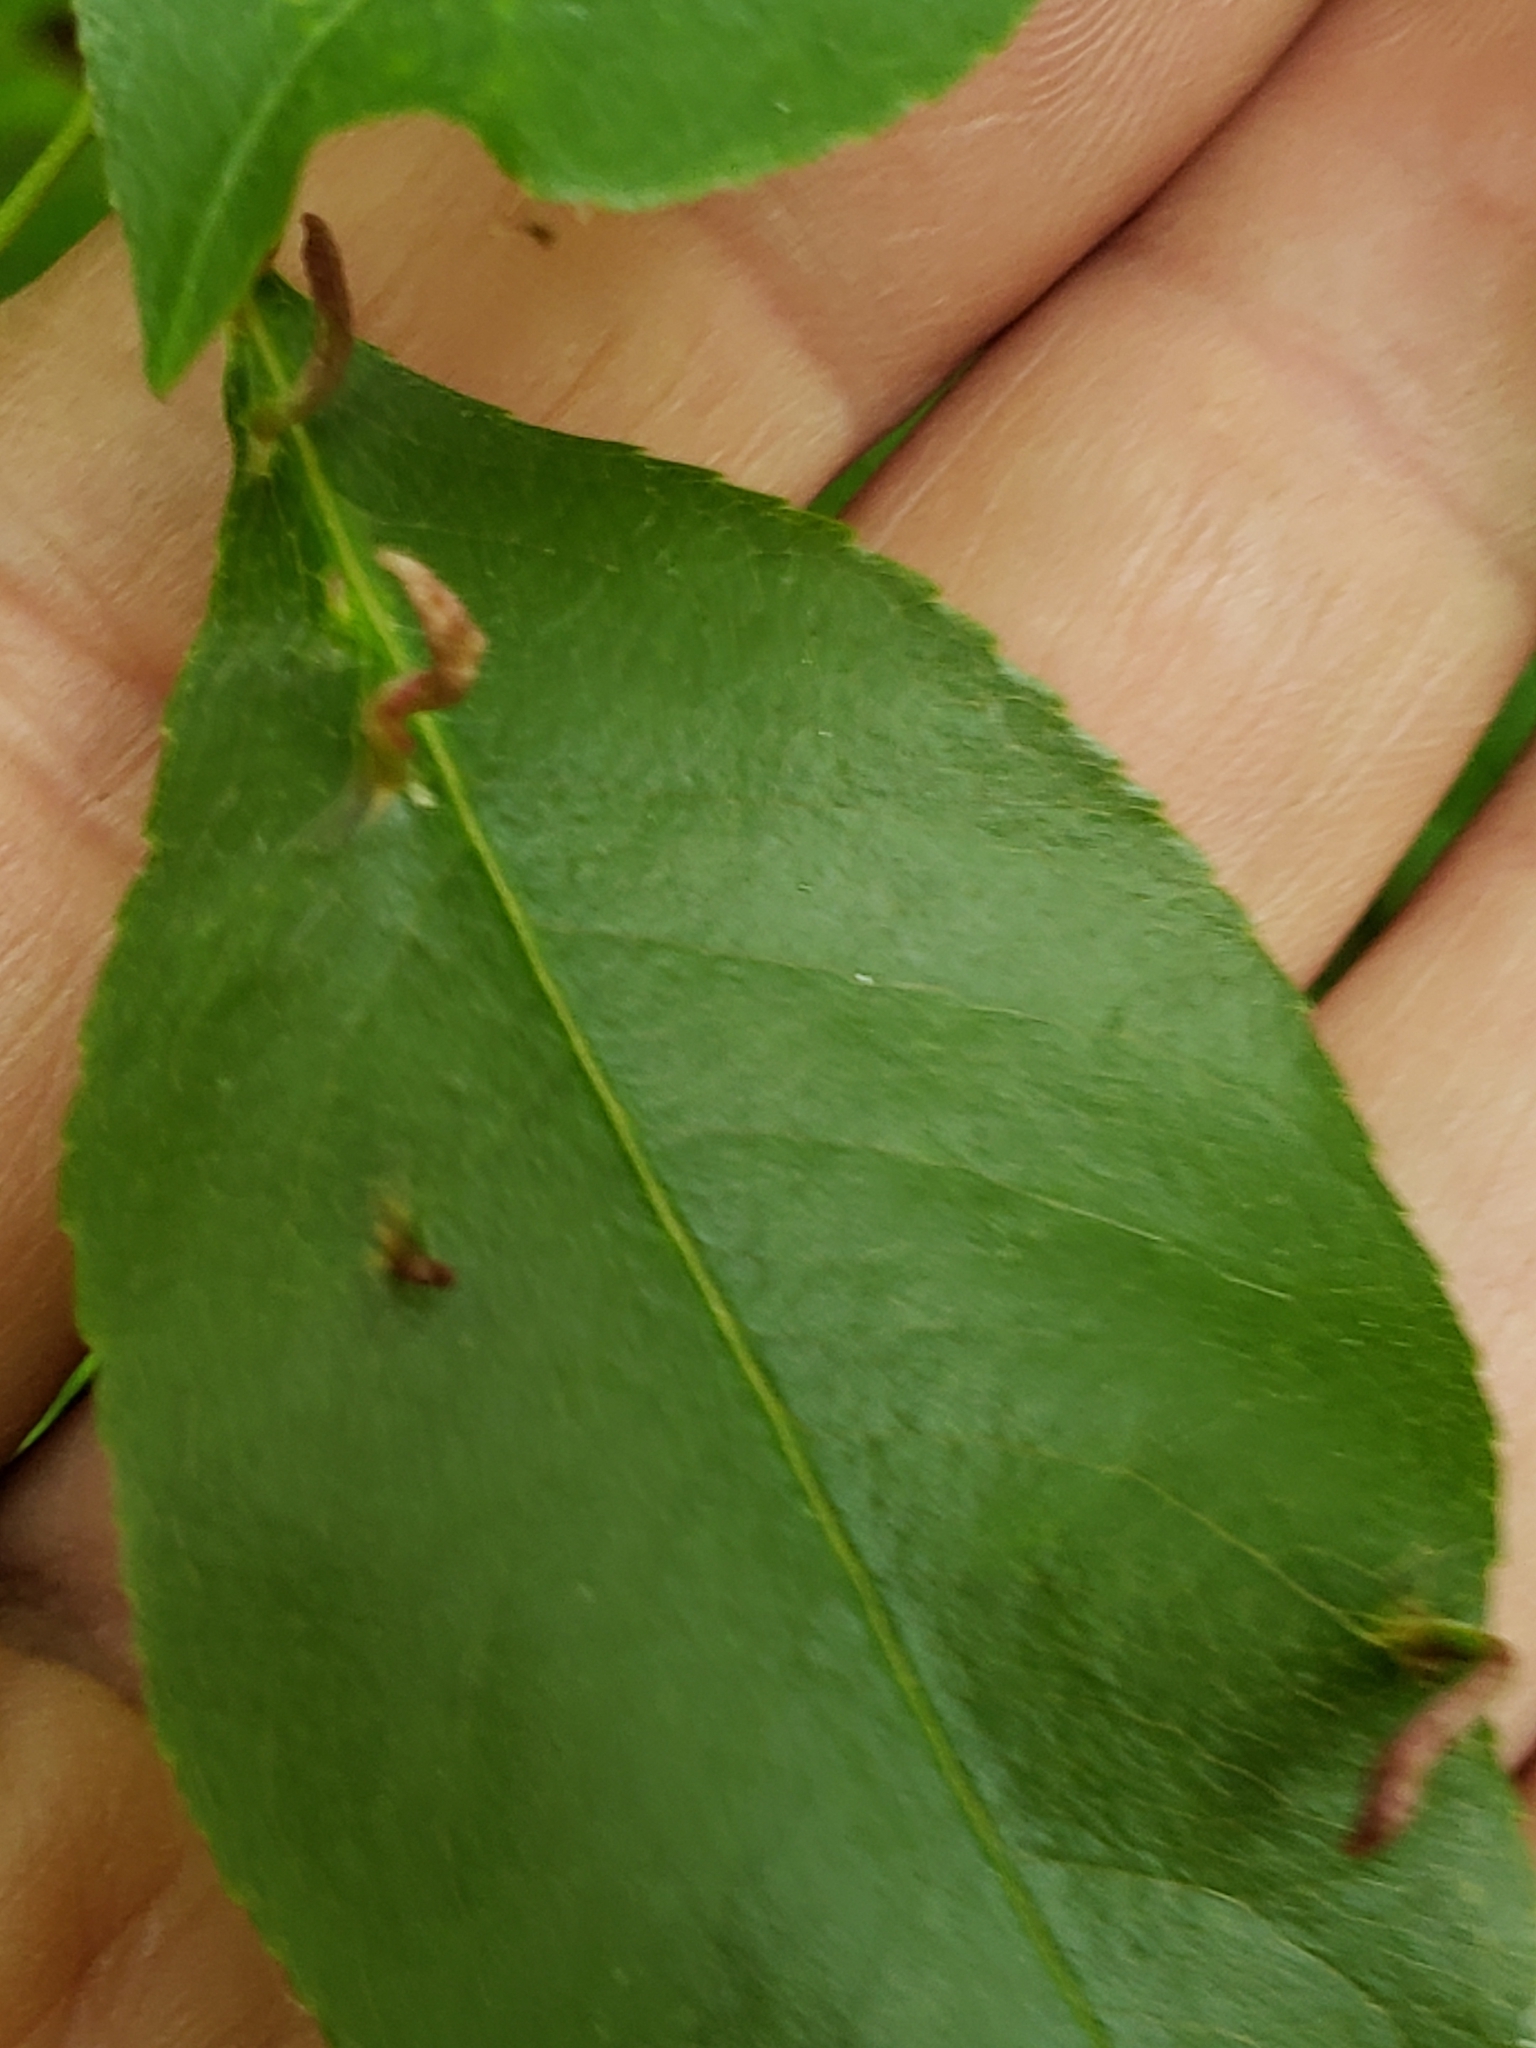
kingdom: Animalia
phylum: Arthropoda
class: Arachnida
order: Trombidiformes
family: Eriophyidae
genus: Eriophyes
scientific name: Eriophyes
